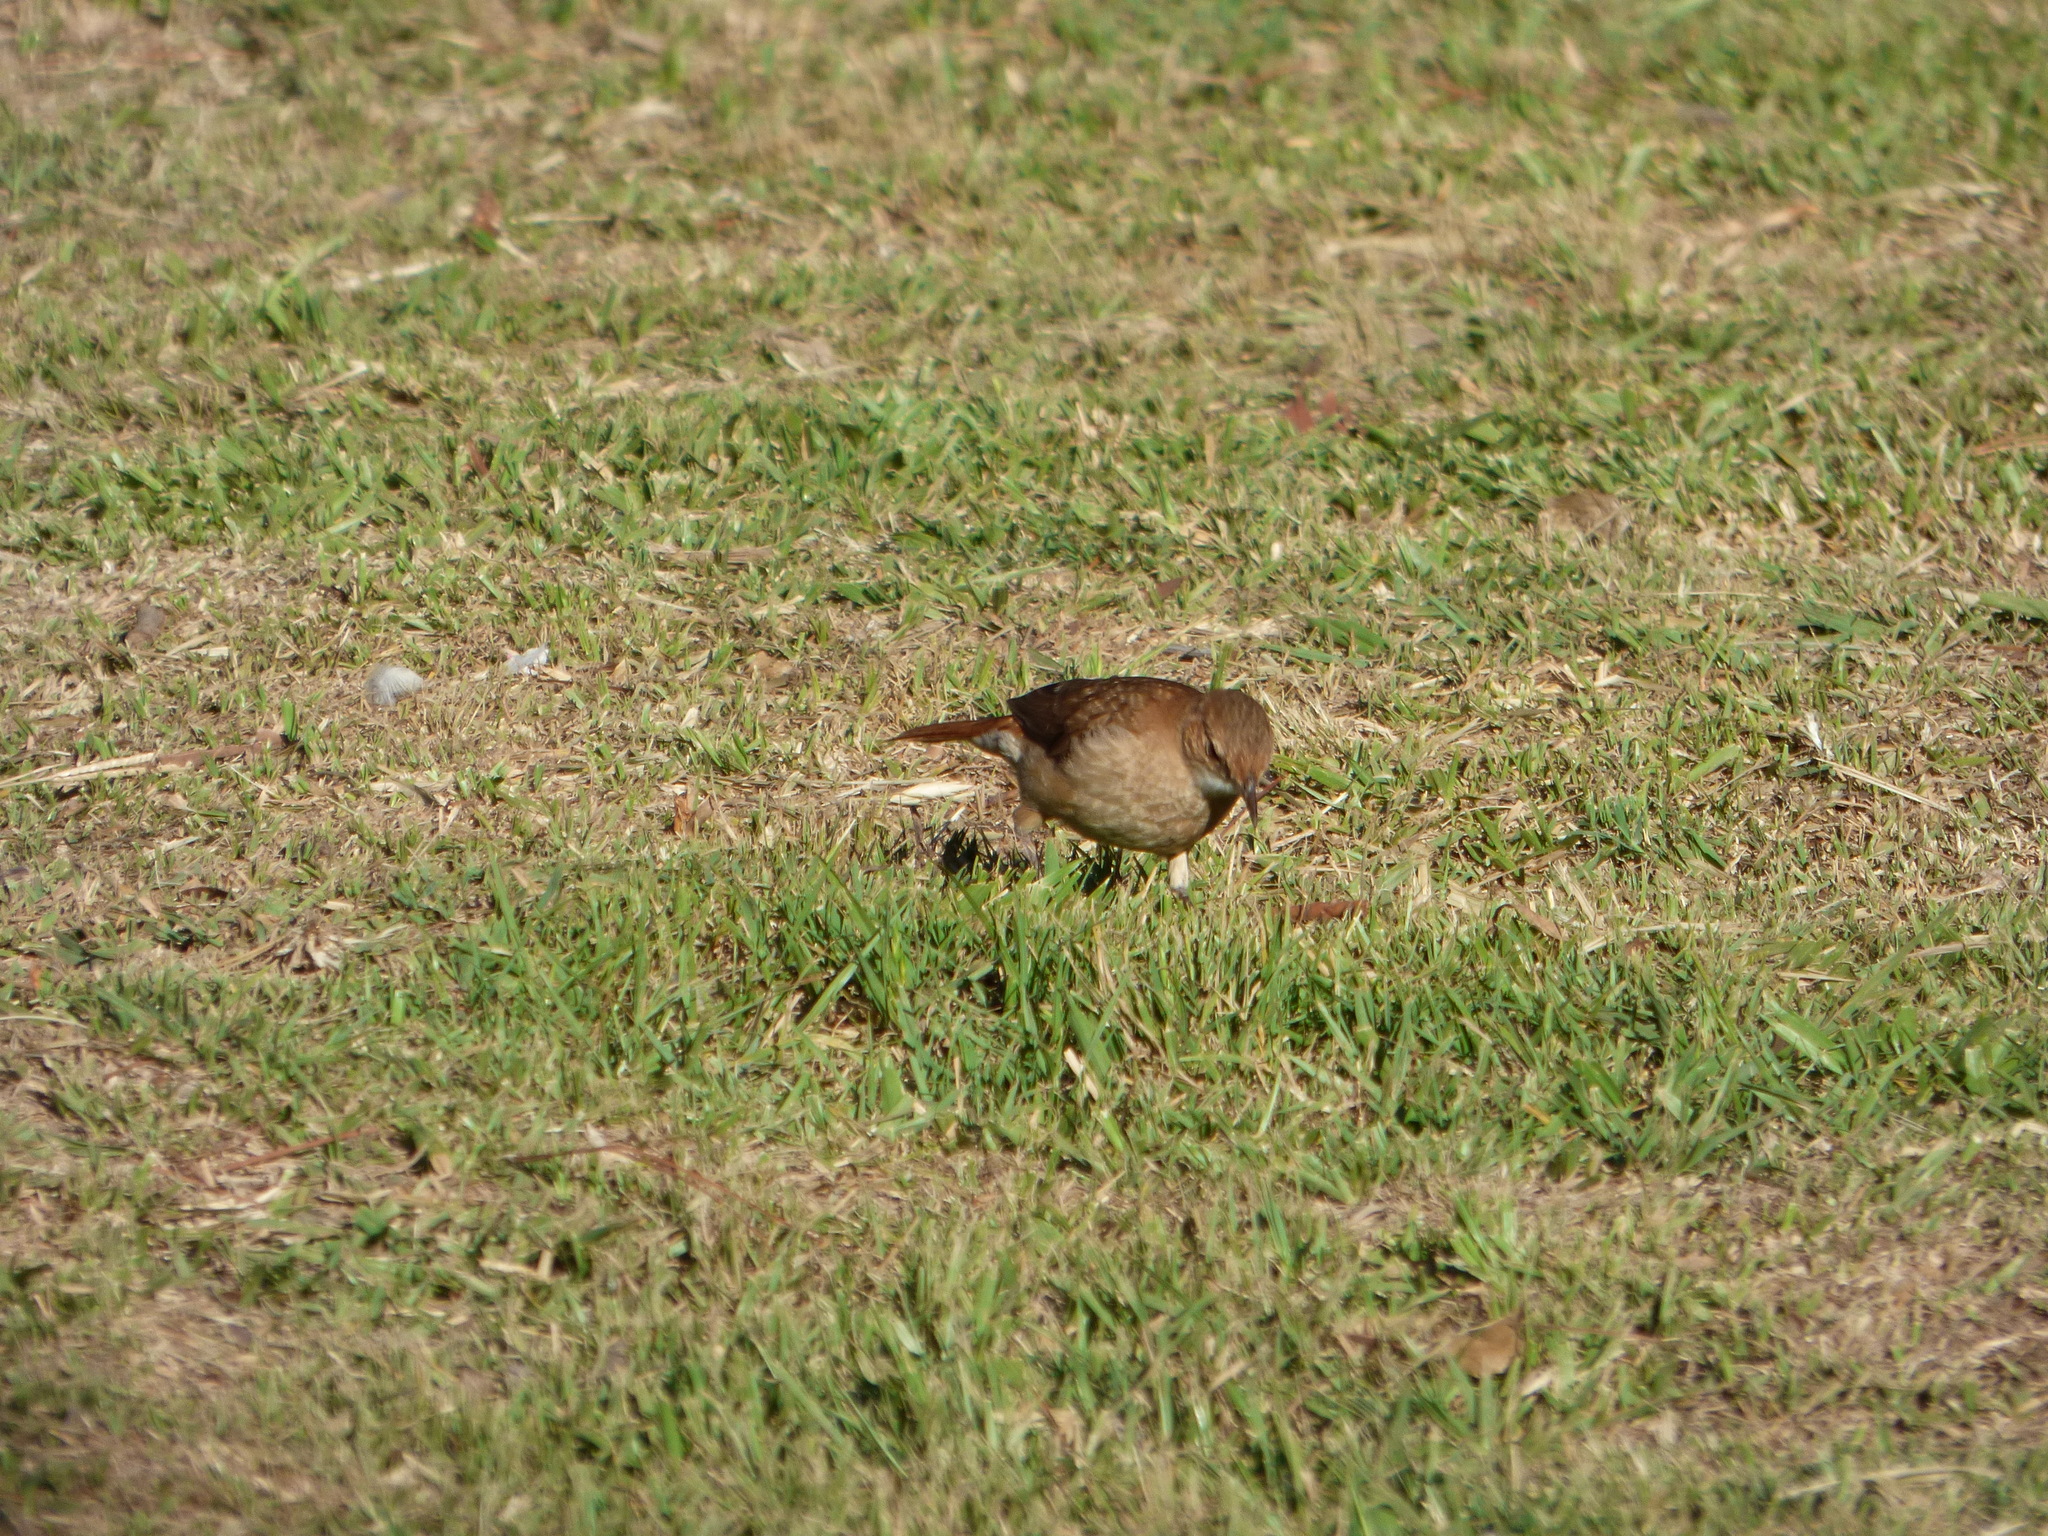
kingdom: Animalia
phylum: Chordata
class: Aves
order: Passeriformes
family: Furnariidae
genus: Furnarius
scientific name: Furnarius rufus
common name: Rufous hornero
